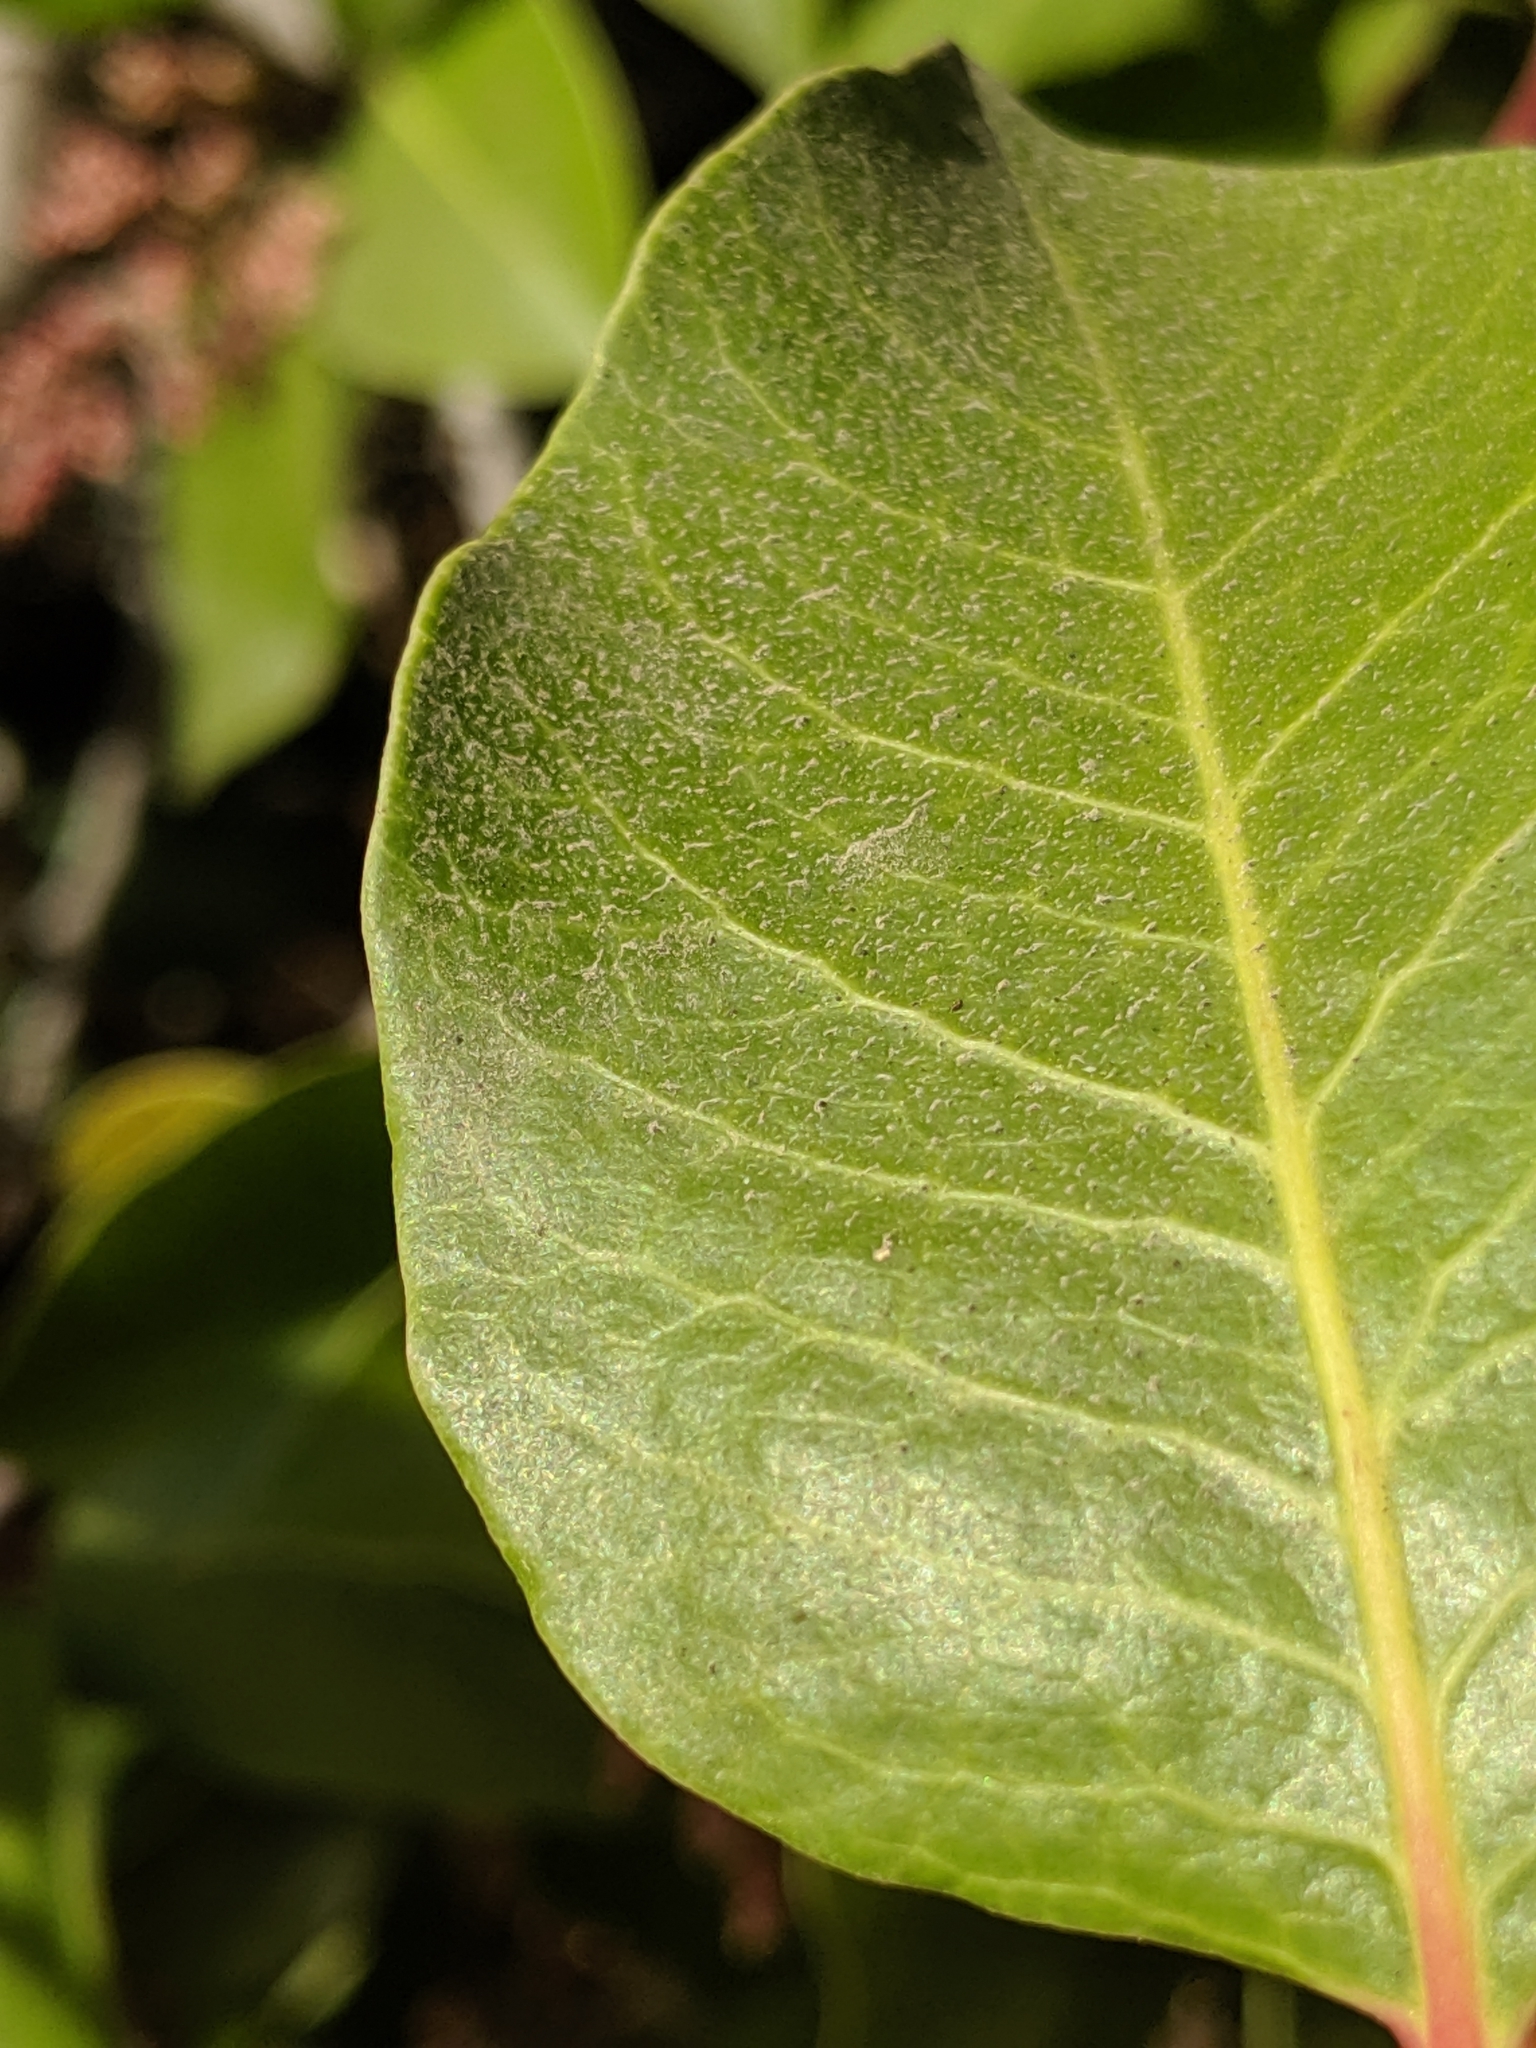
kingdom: Plantae
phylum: Tracheophyta
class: Magnoliopsida
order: Sapindales
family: Anacardiaceae
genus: Rhus
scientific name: Rhus ovata
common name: Sugar sumac
